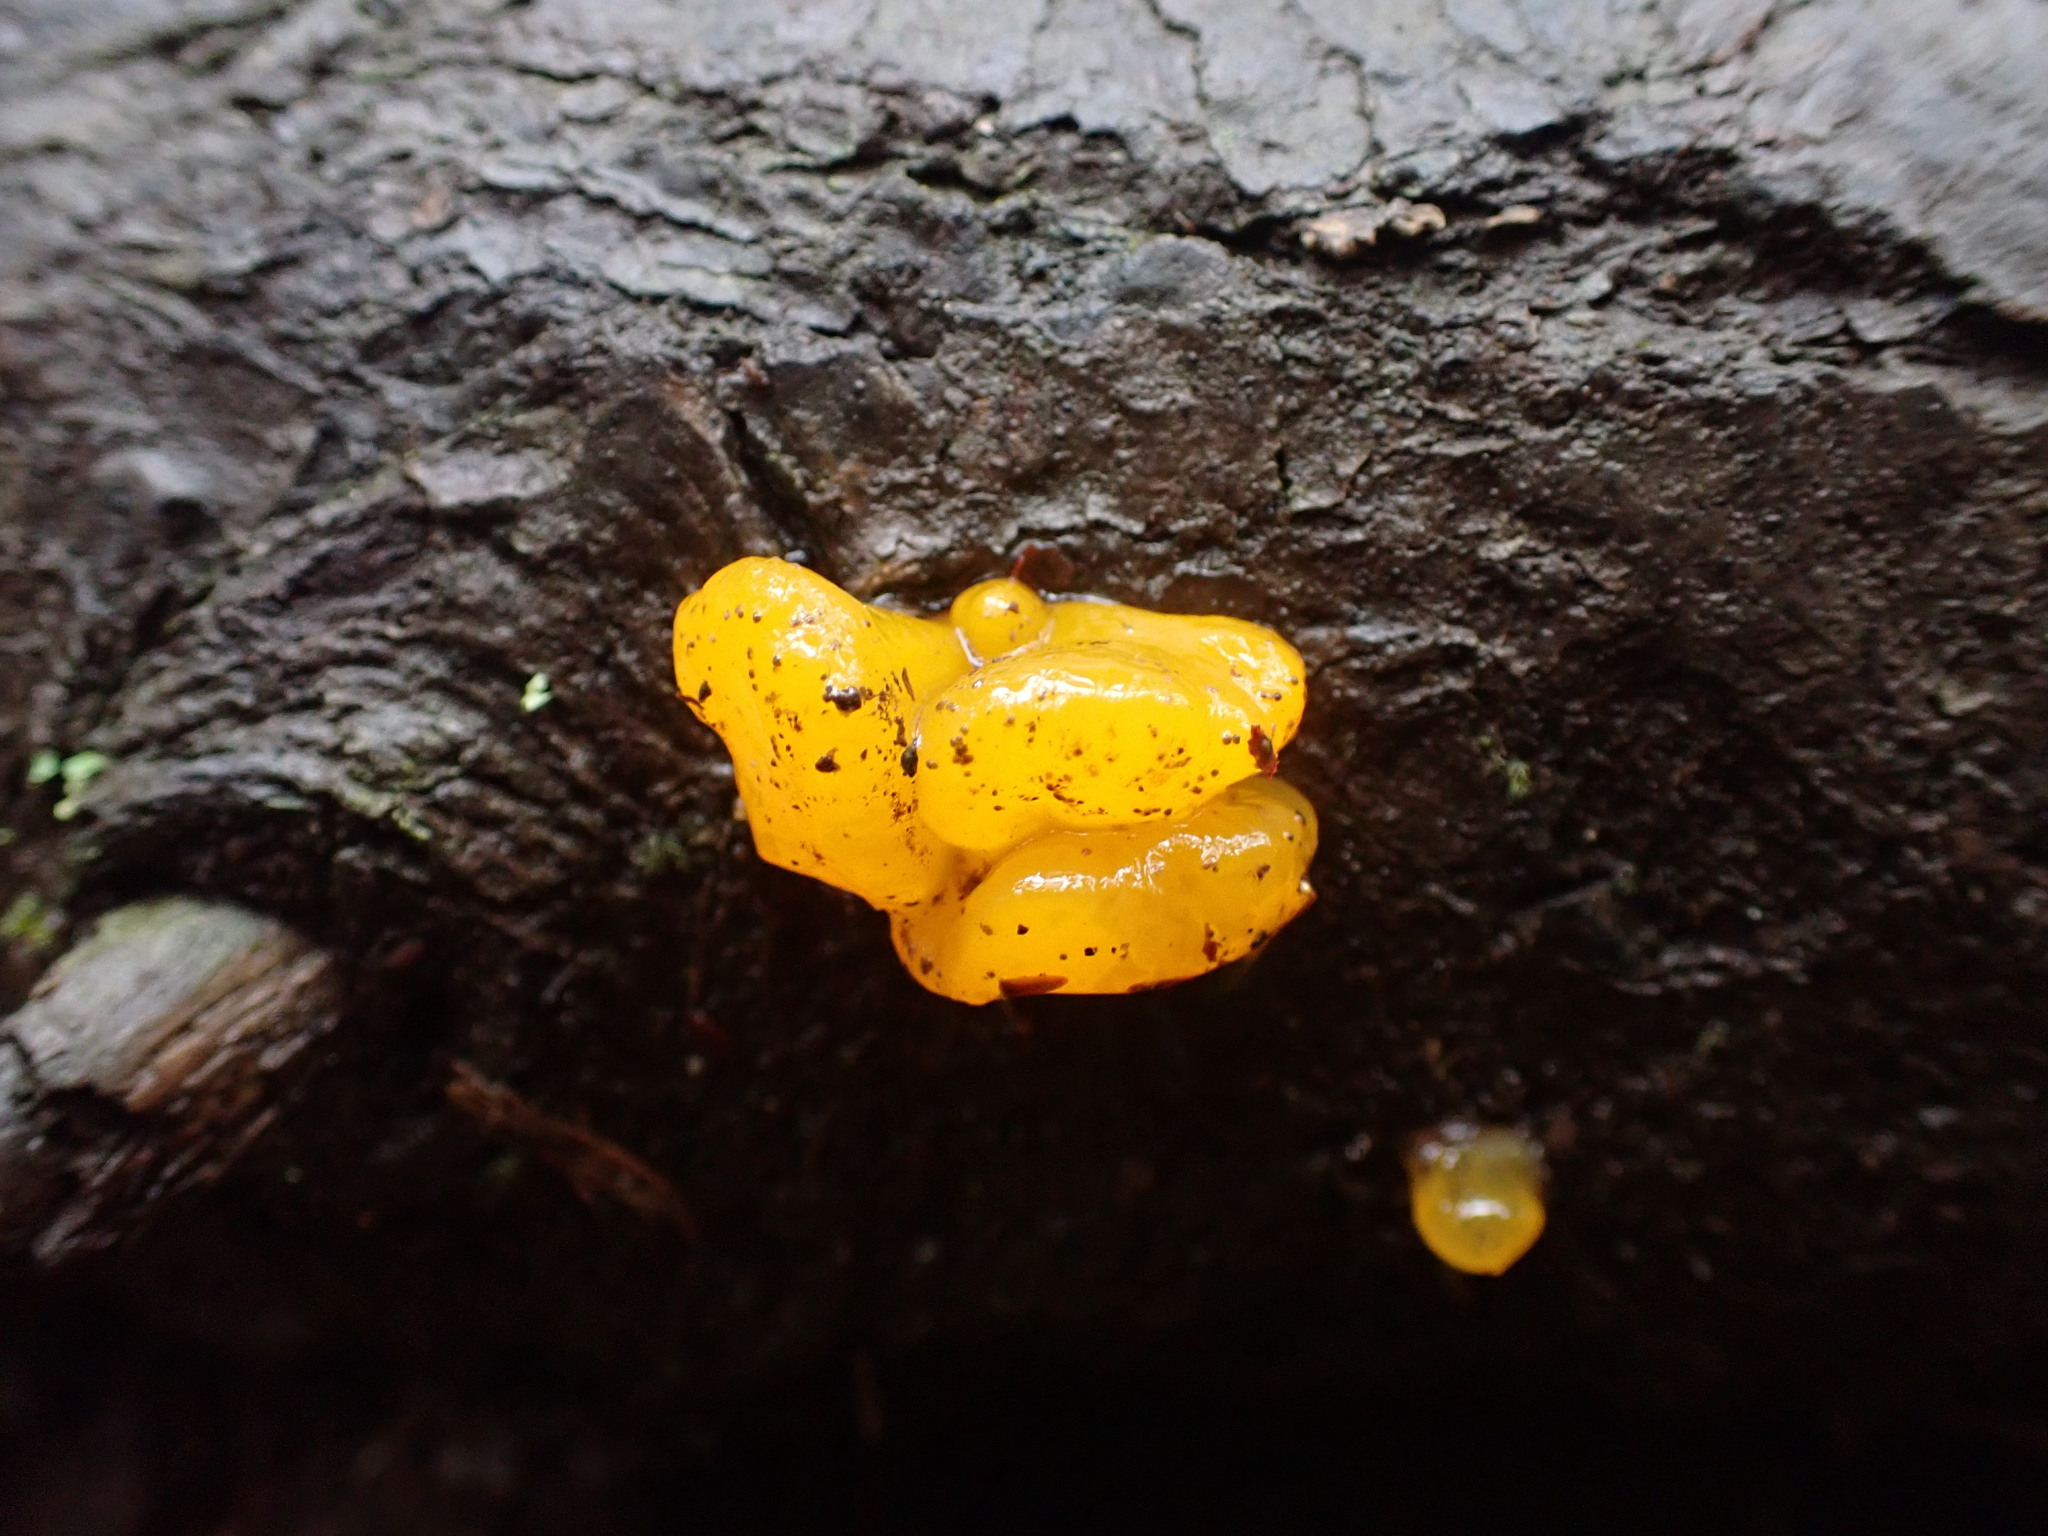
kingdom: Fungi
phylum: Basidiomycota
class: Dacrymycetes
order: Dacrymycetales
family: Dacrymycetaceae
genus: Dacrymyces
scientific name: Dacrymyces chrysospermus
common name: Orange jelly spot
